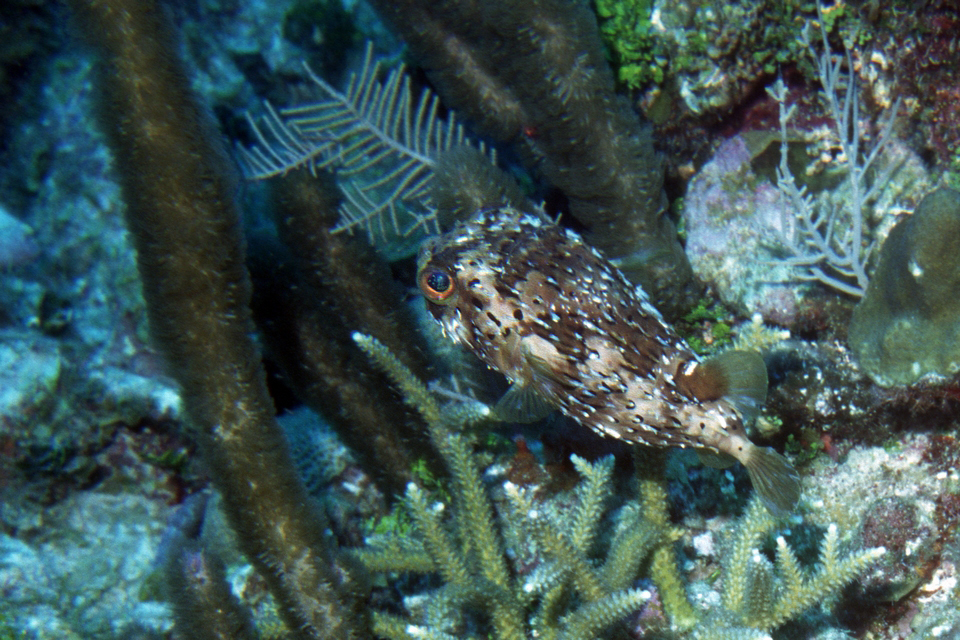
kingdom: Animalia
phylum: Chordata
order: Tetraodontiformes
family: Diodontidae
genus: Diodon
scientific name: Diodon holocanthus
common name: Balloonfish
